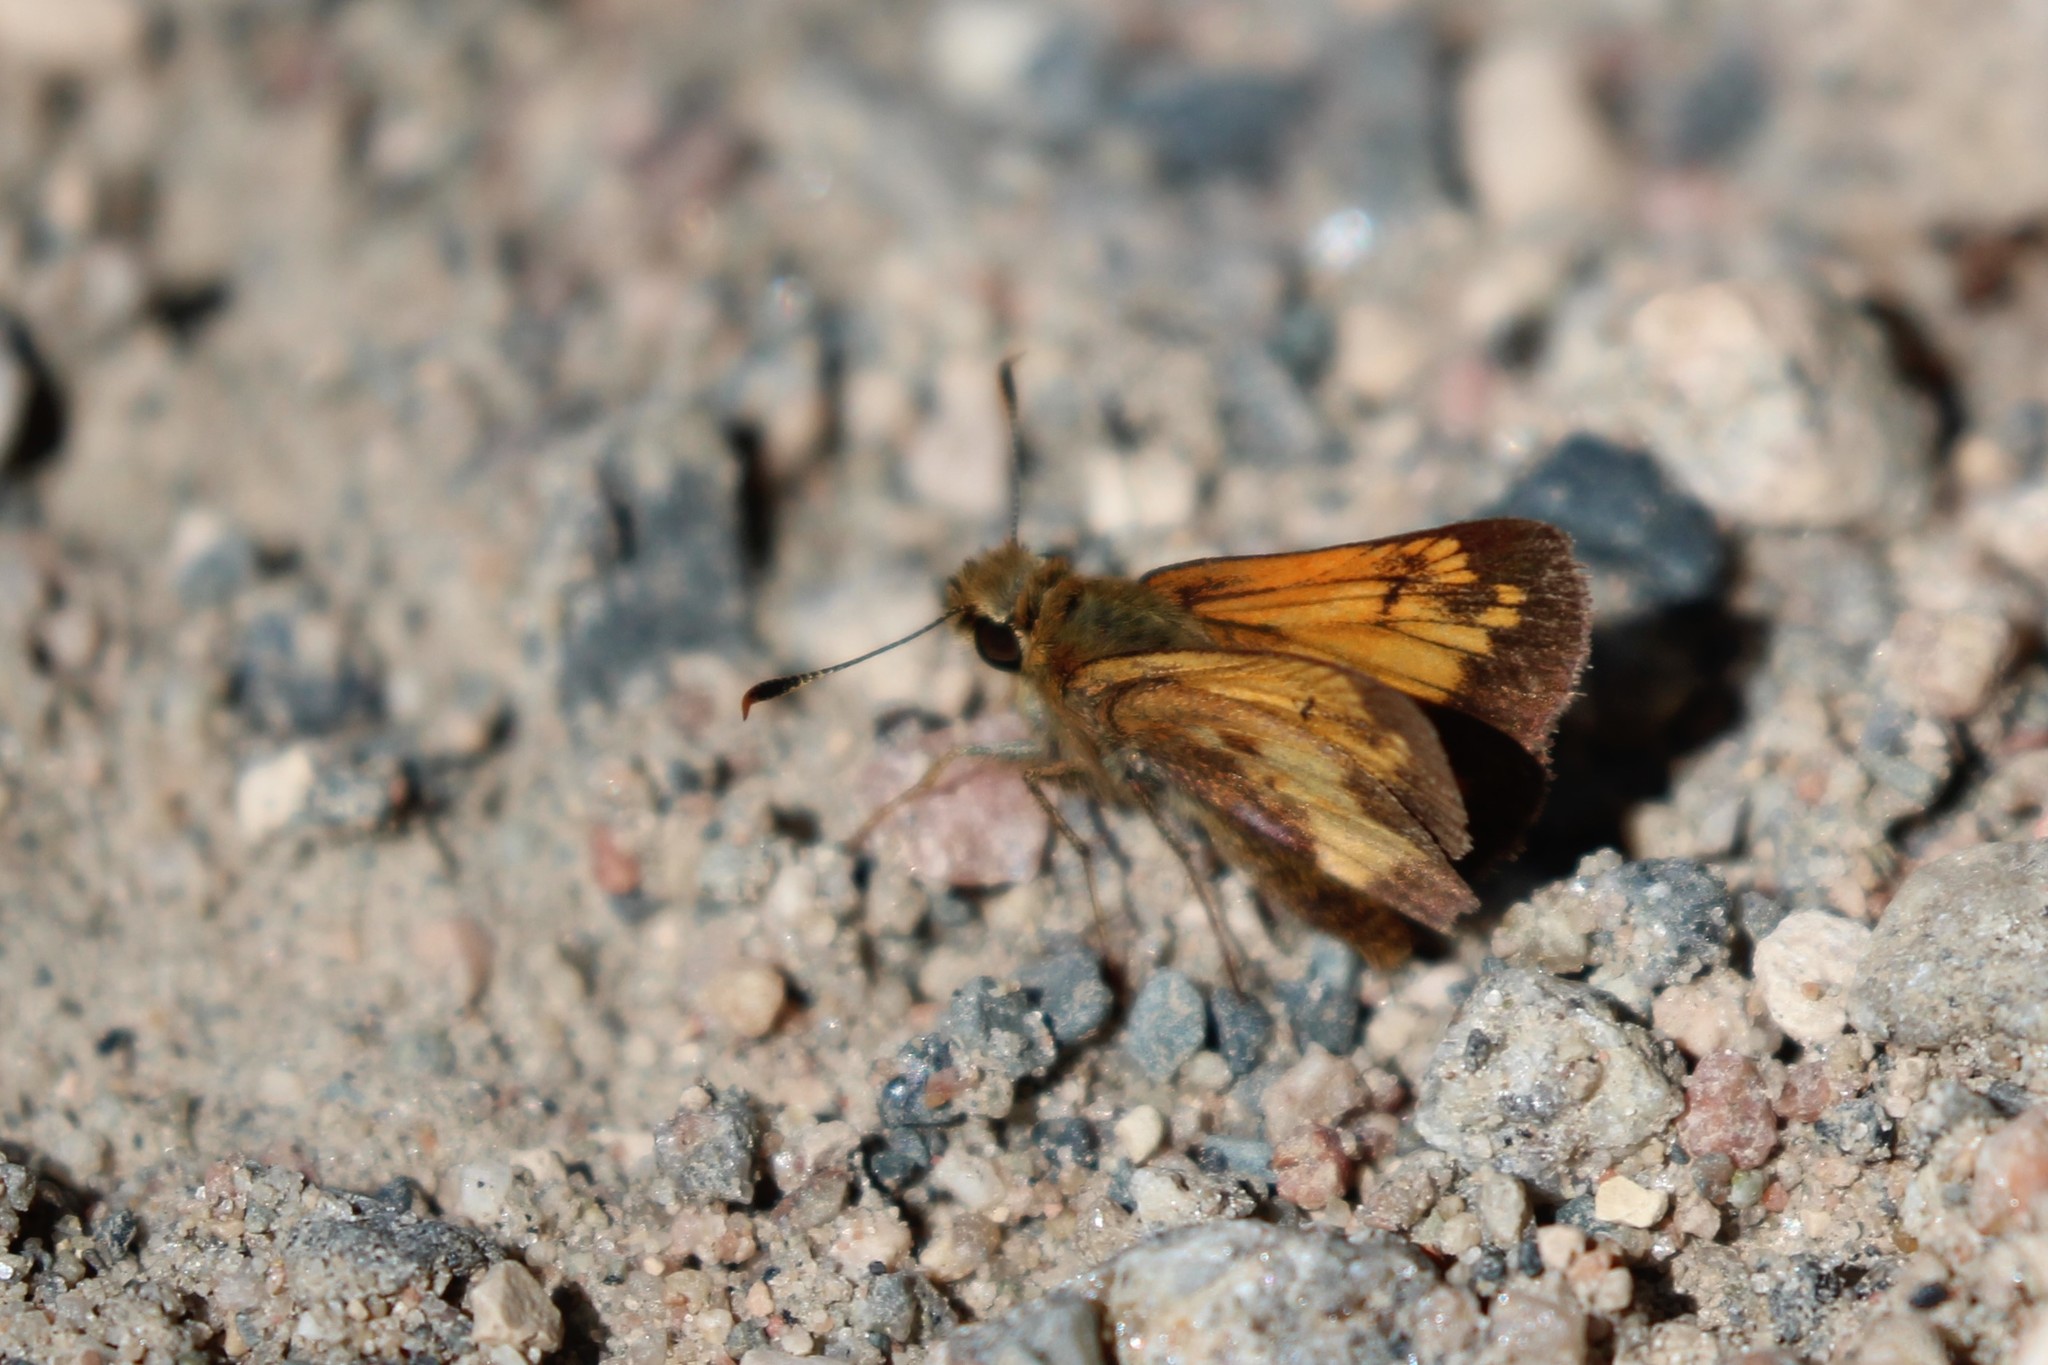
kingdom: Animalia
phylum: Arthropoda
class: Insecta
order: Lepidoptera
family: Hesperiidae
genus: Lon
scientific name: Lon hobomok
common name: Hobomok skipper
